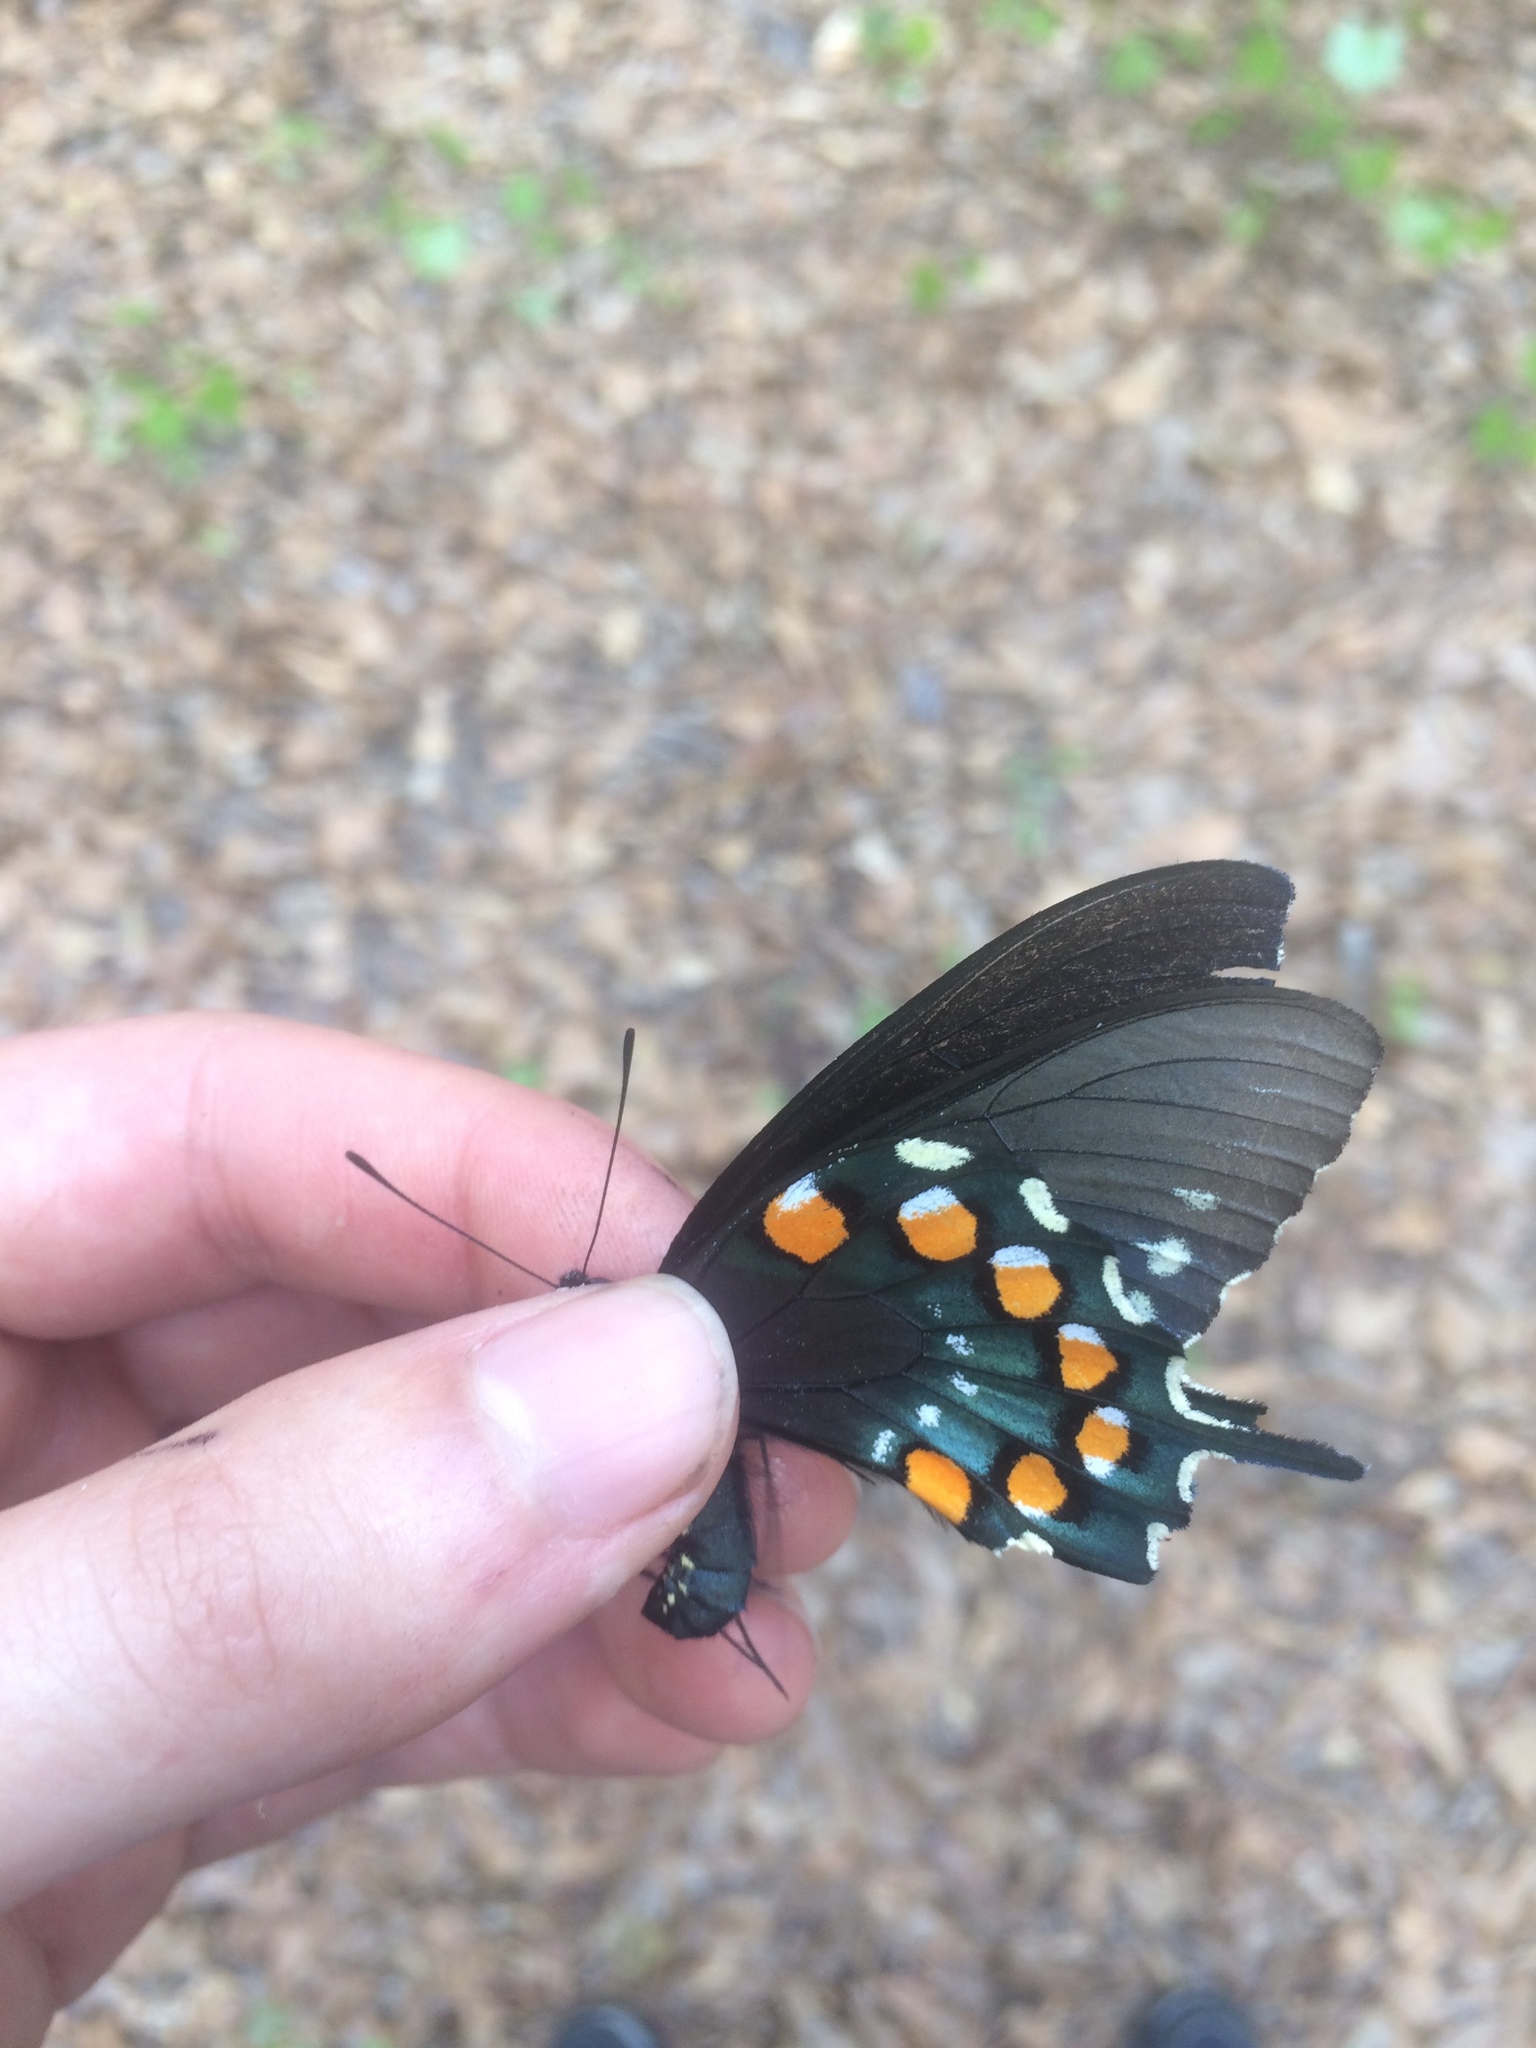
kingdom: Animalia
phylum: Arthropoda
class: Insecta
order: Lepidoptera
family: Papilionidae
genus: Battus
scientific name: Battus philenor
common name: Pipevine swallowtail
